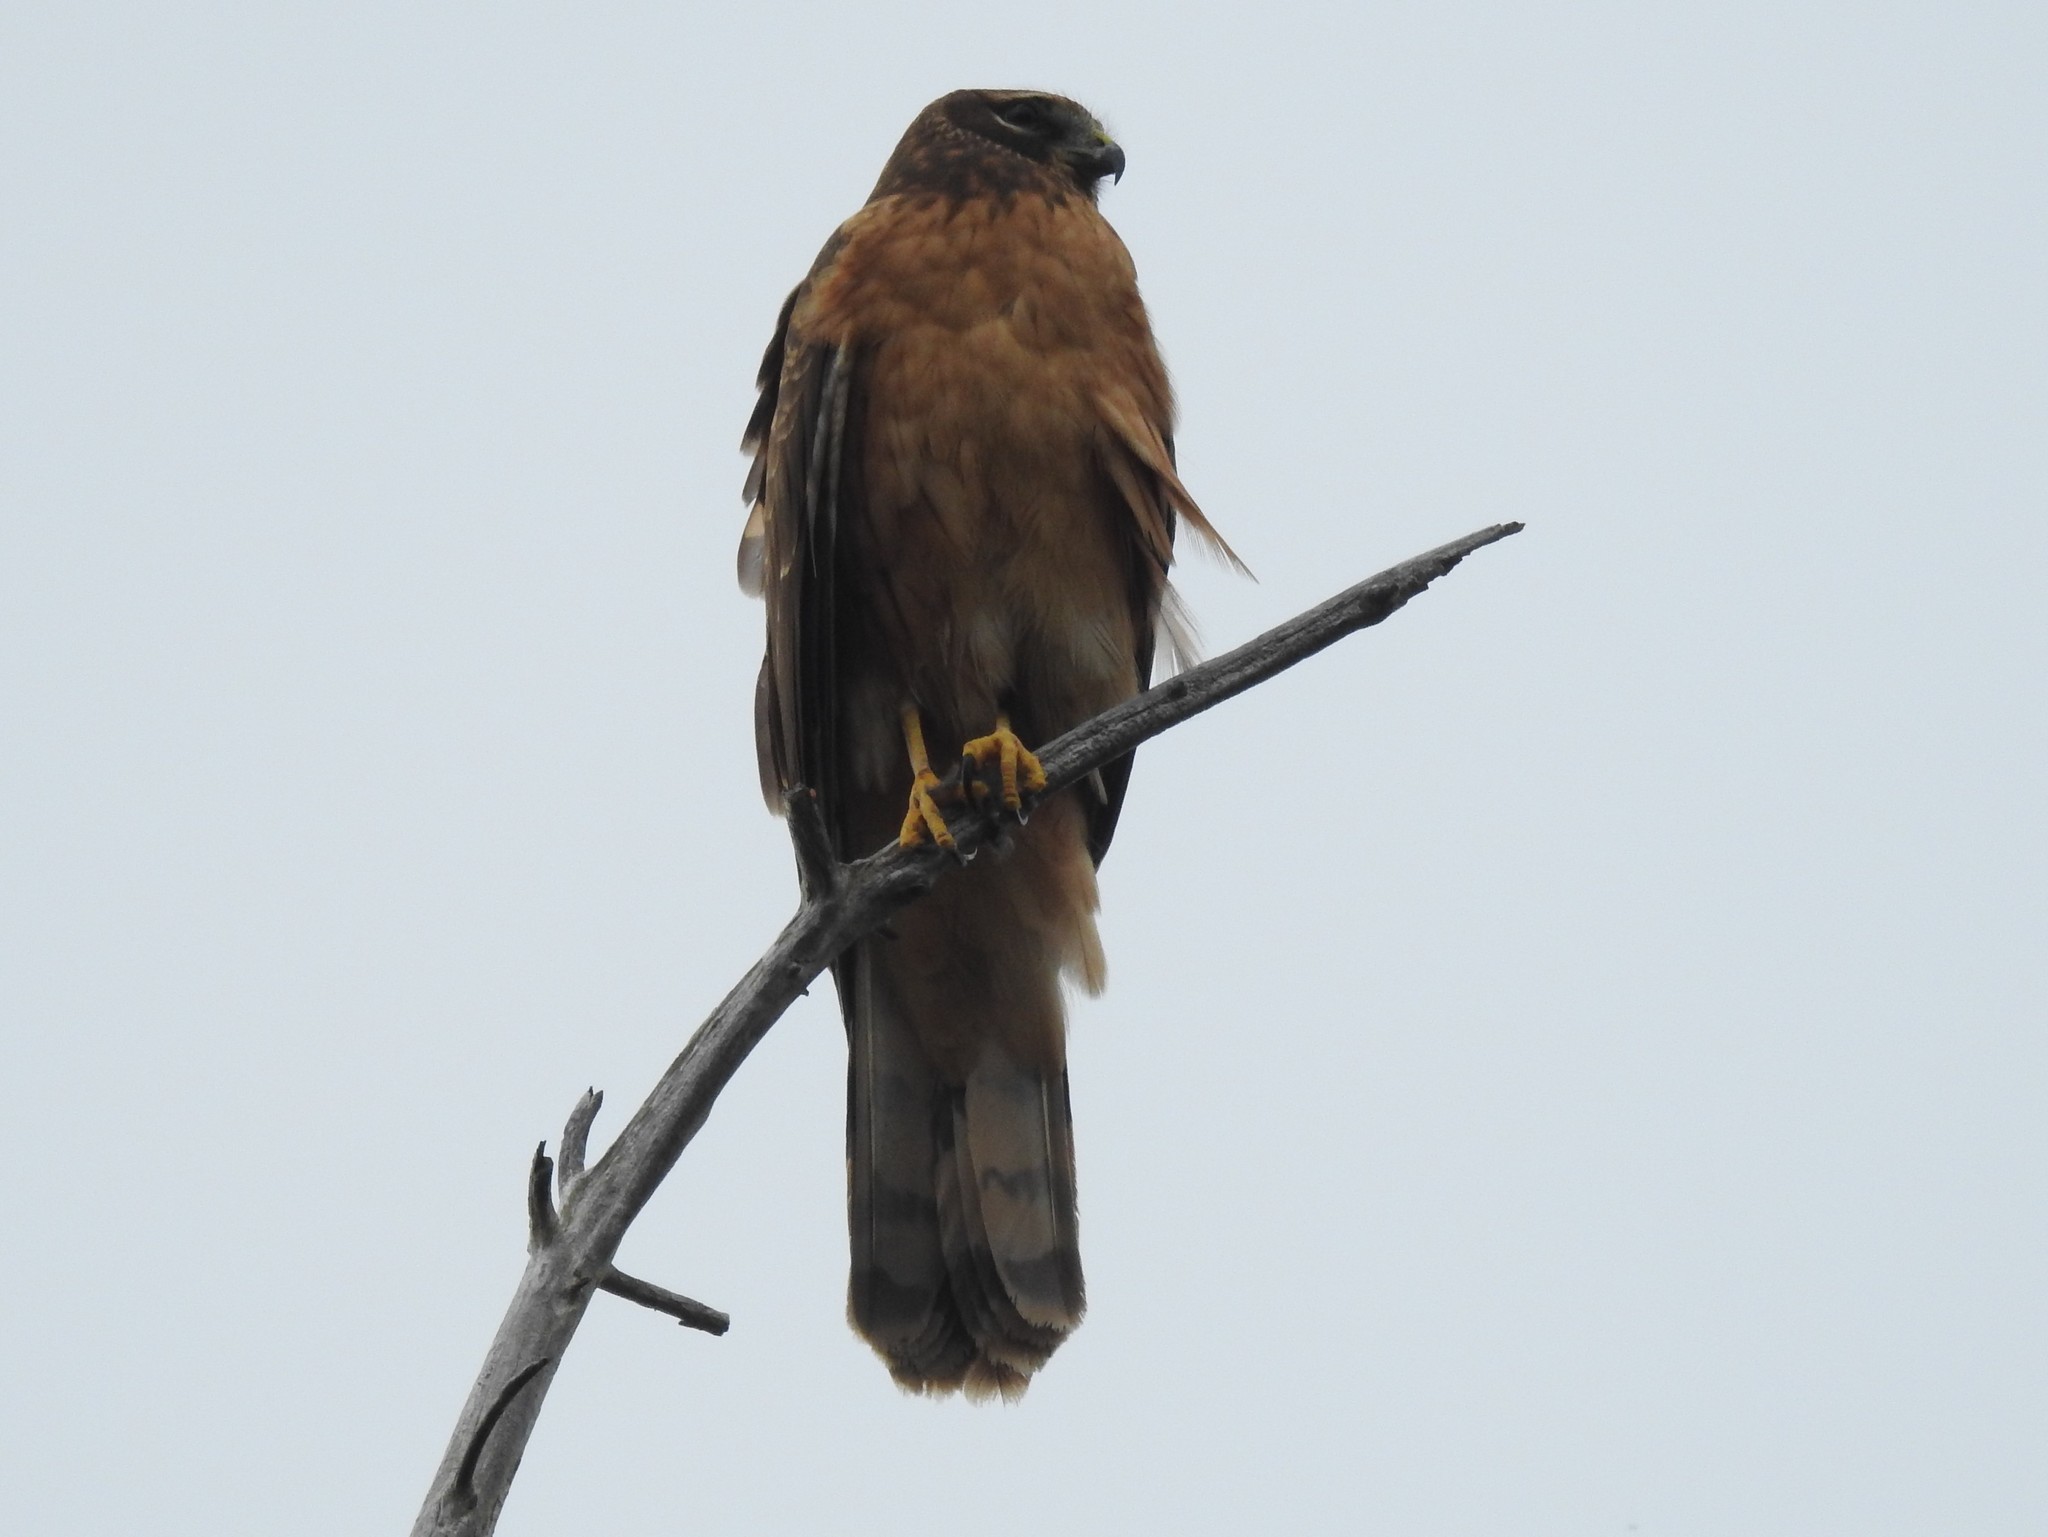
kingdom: Animalia
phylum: Chordata
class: Aves
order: Accipitriformes
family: Accipitridae
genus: Circus
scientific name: Circus cyaneus
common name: Hen harrier
